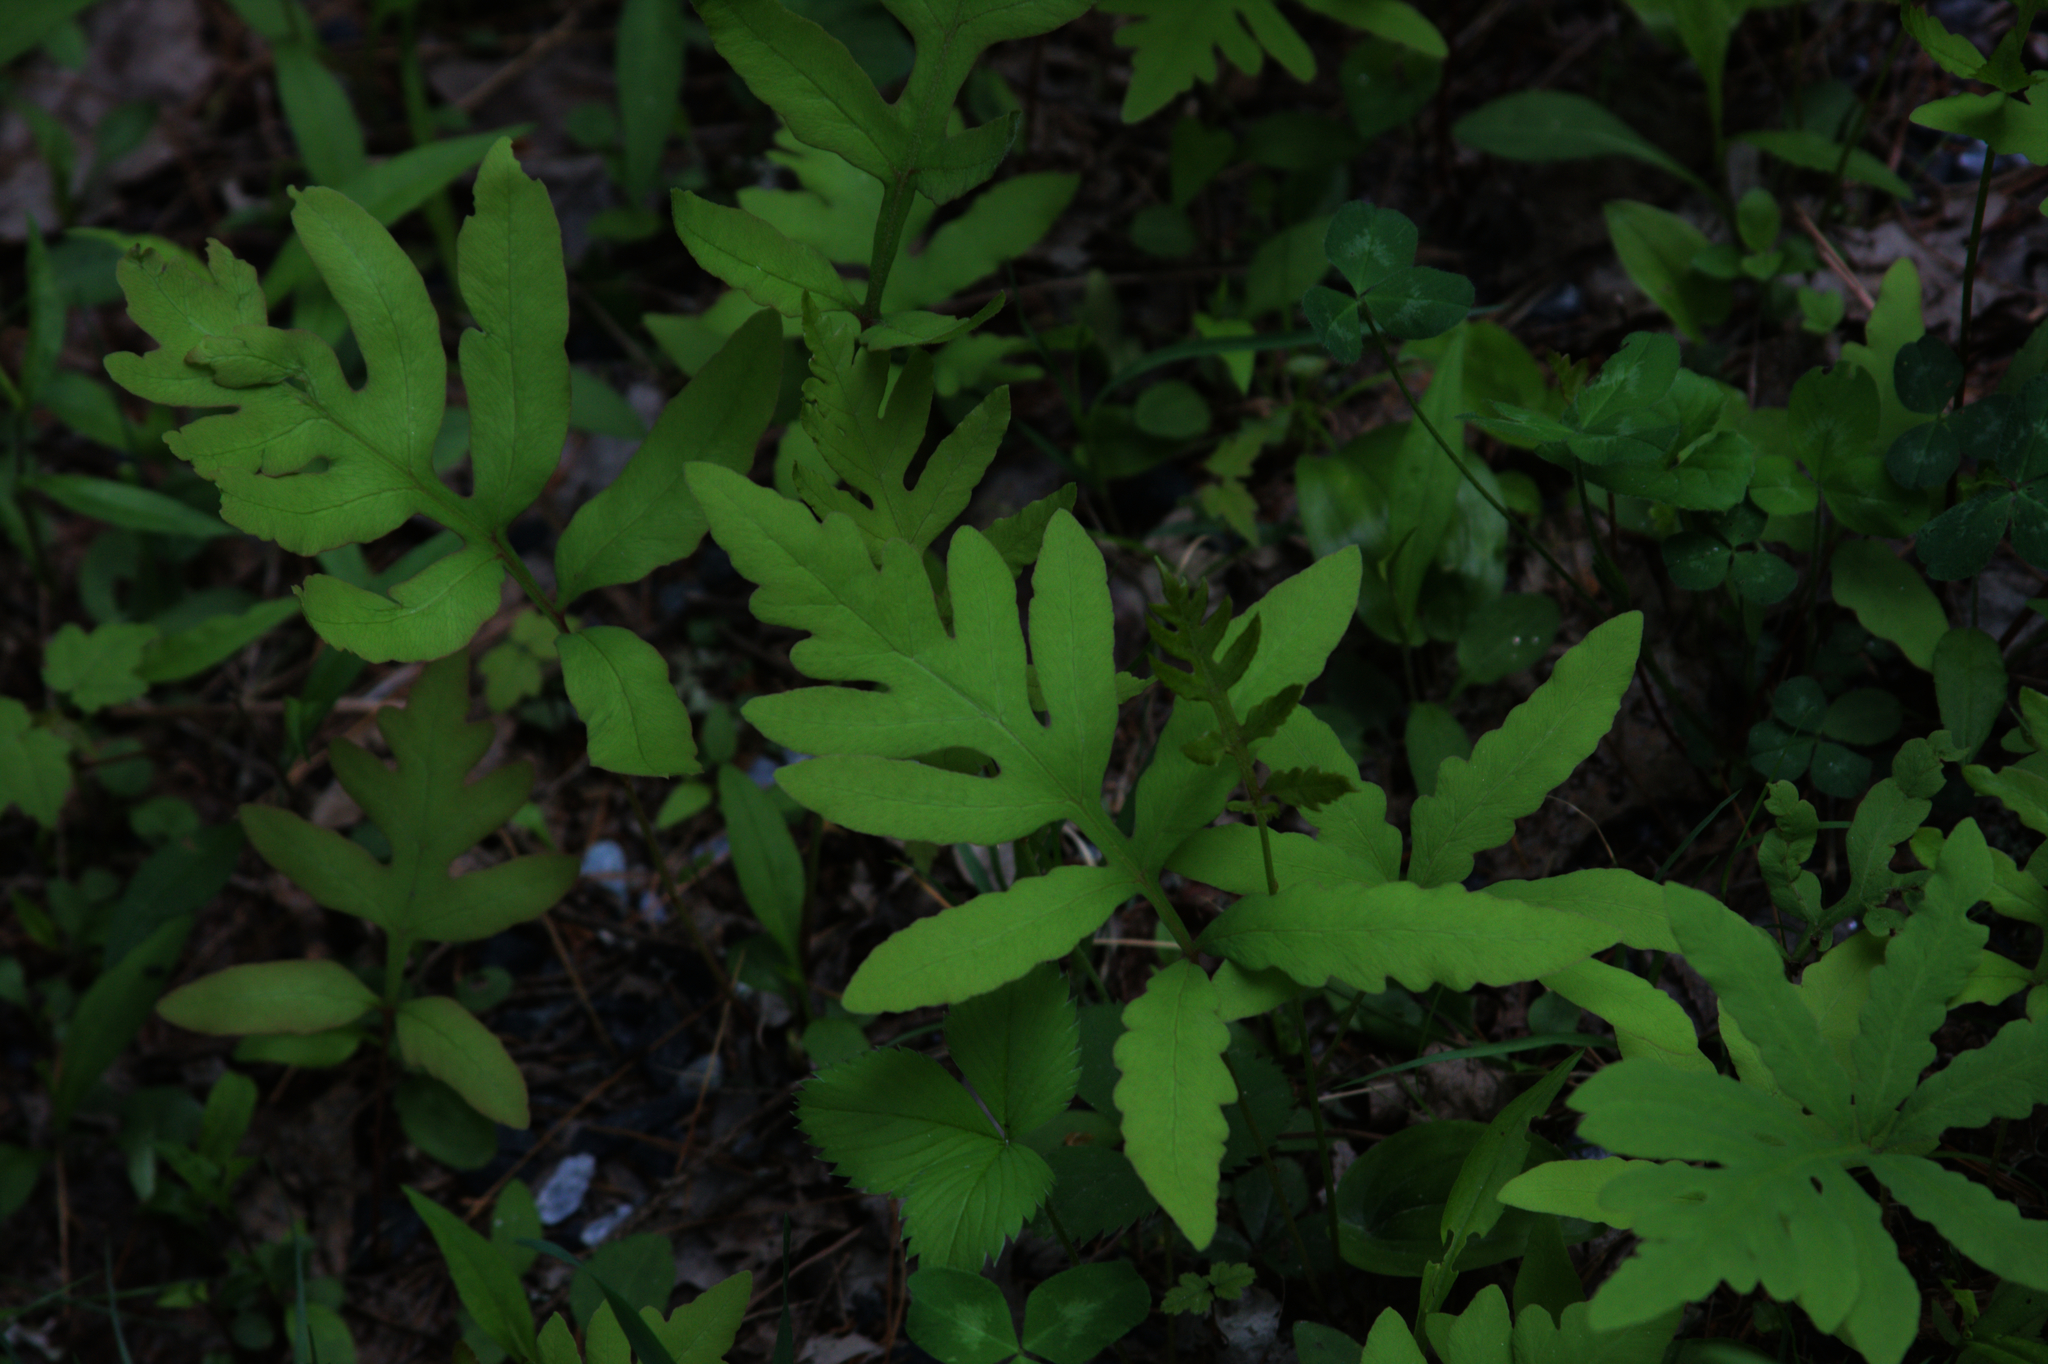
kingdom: Plantae
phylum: Tracheophyta
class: Polypodiopsida
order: Polypodiales
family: Onocleaceae
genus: Onoclea
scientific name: Onoclea sensibilis
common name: Sensitive fern
